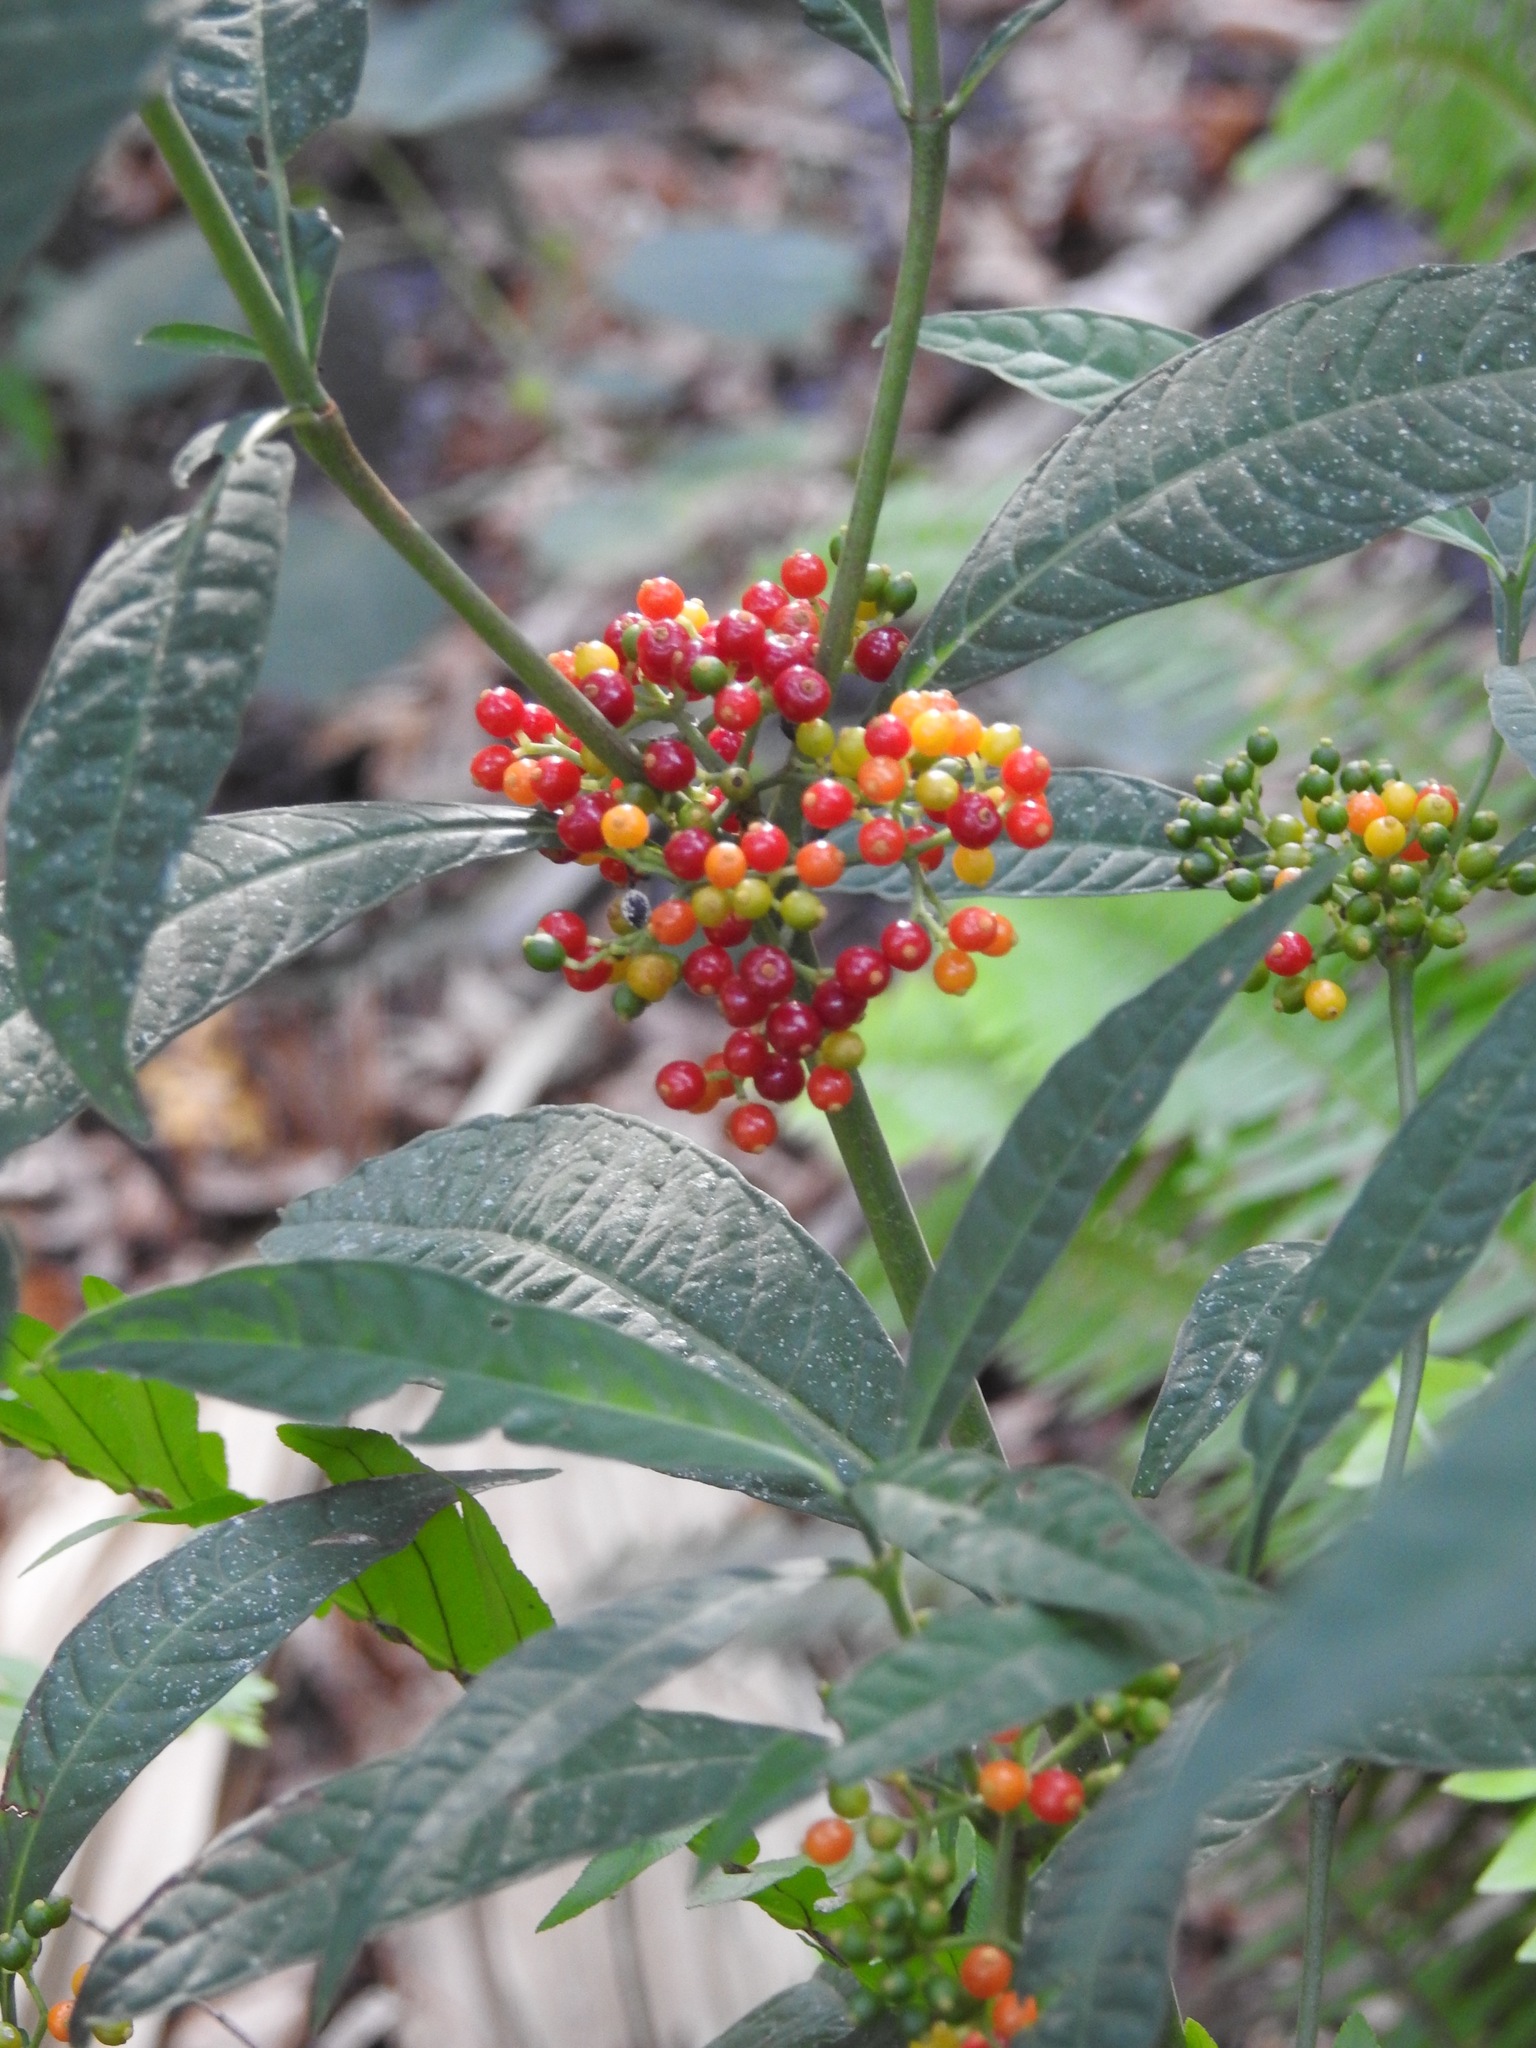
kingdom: Plantae
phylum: Tracheophyta
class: Magnoliopsida
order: Gentianales
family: Rubiaceae
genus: Psychotria
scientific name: Psychotria tenuifolia
